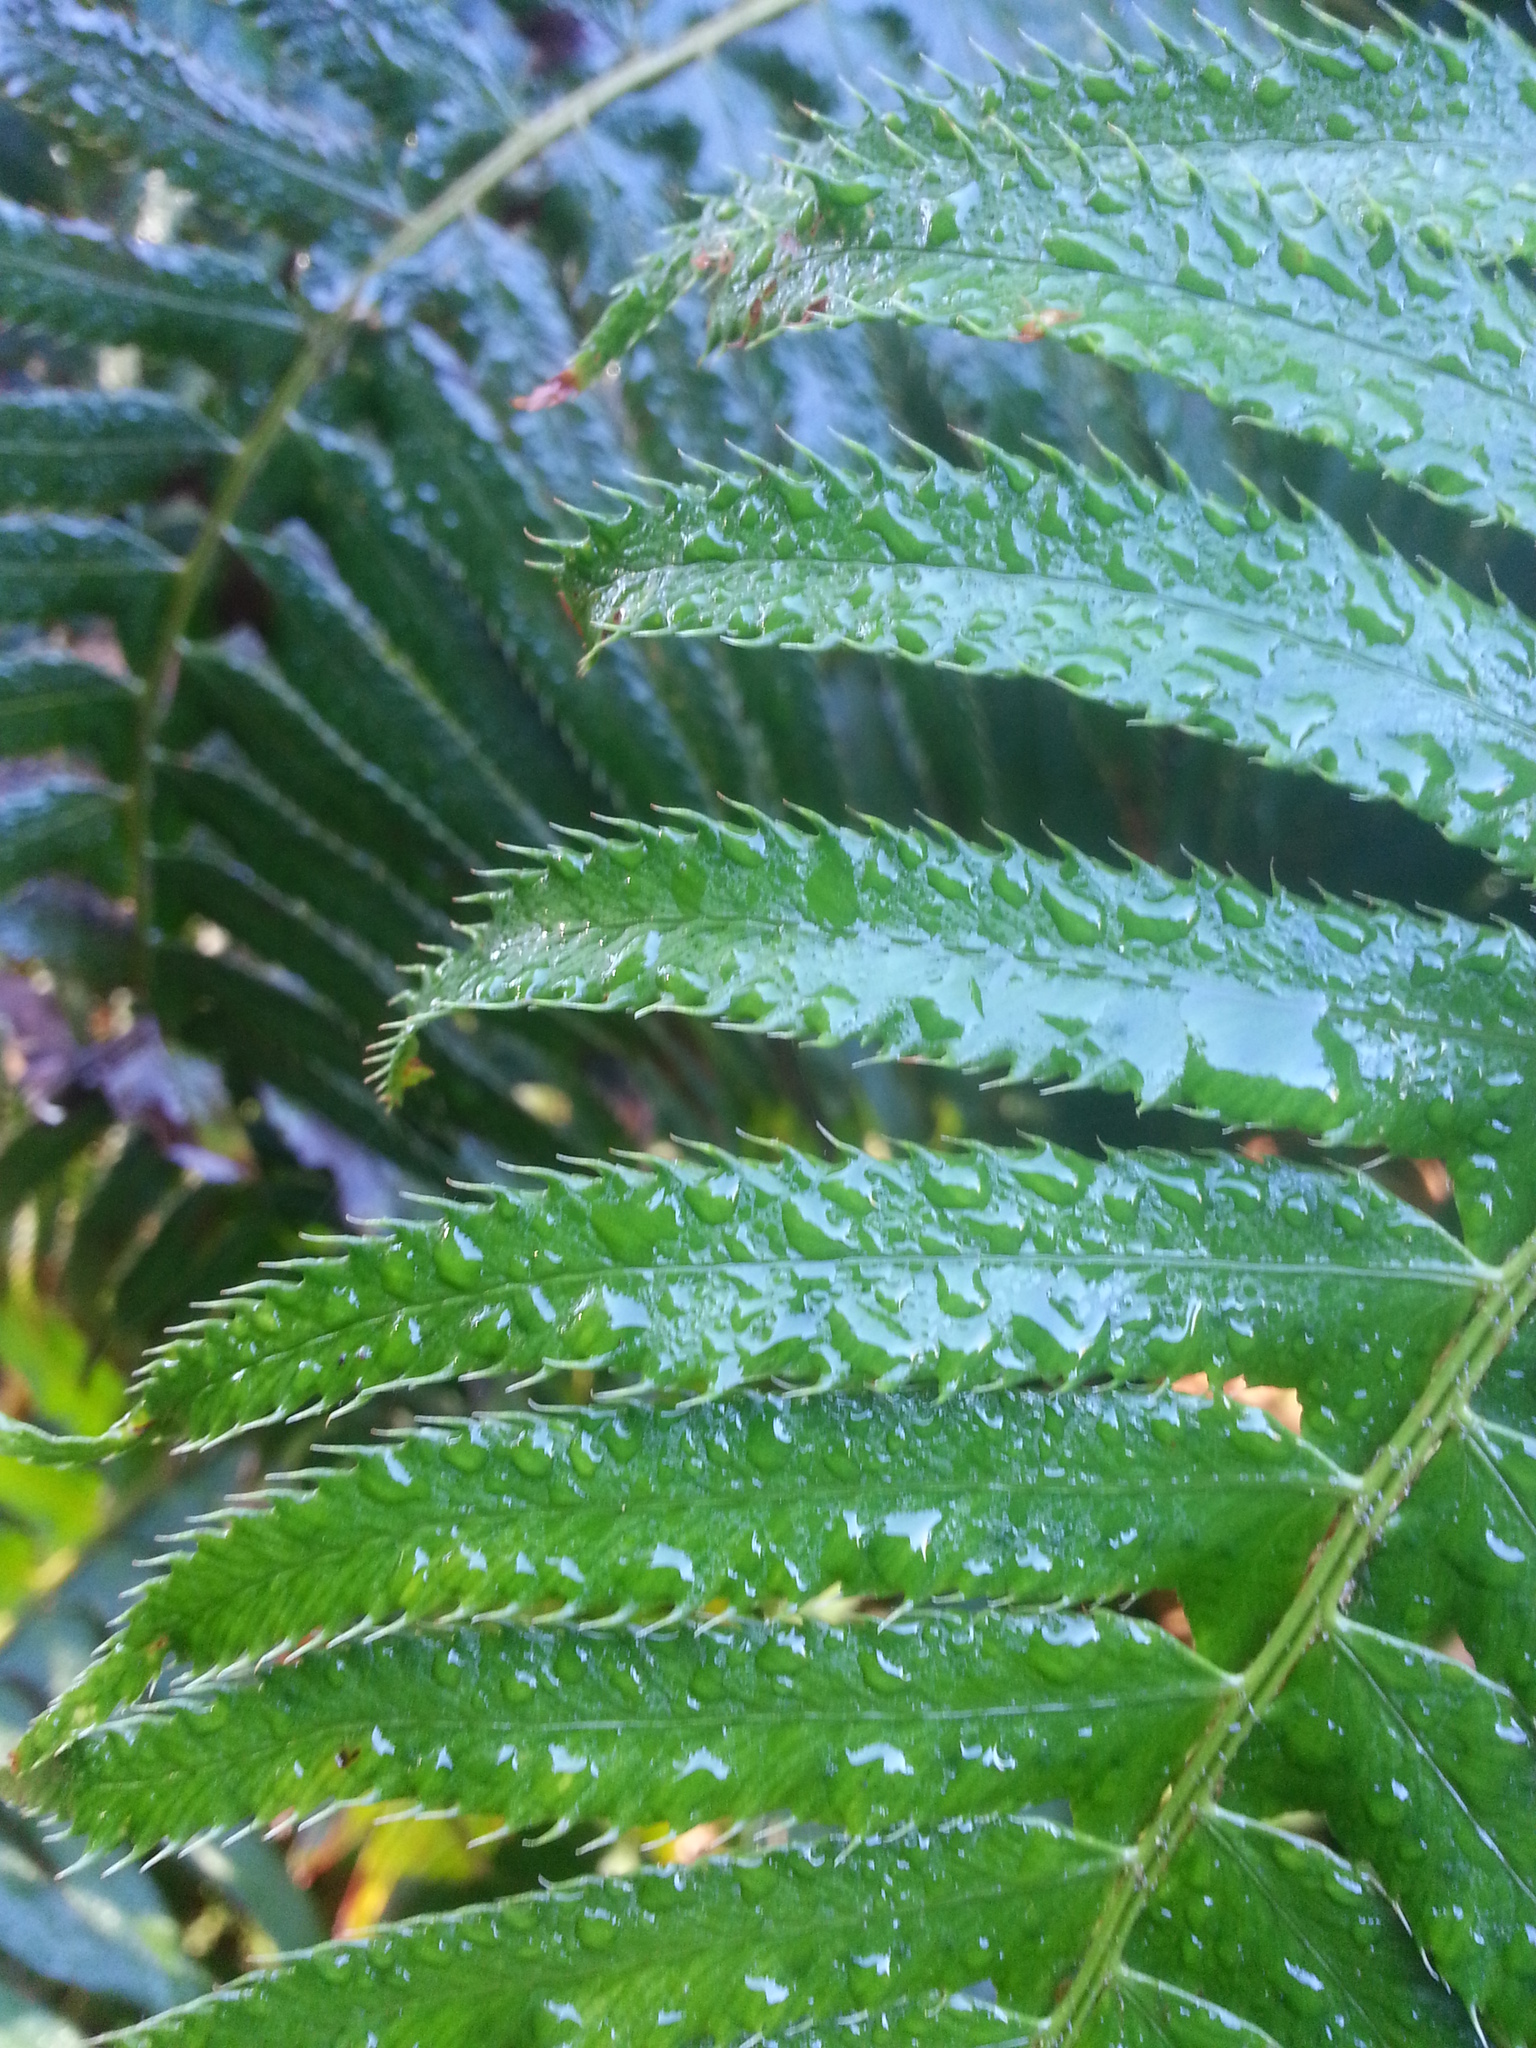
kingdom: Plantae
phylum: Tracheophyta
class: Polypodiopsida
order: Polypodiales
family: Dryopteridaceae
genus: Polystichum
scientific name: Polystichum munitum
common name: Western sword-fern
